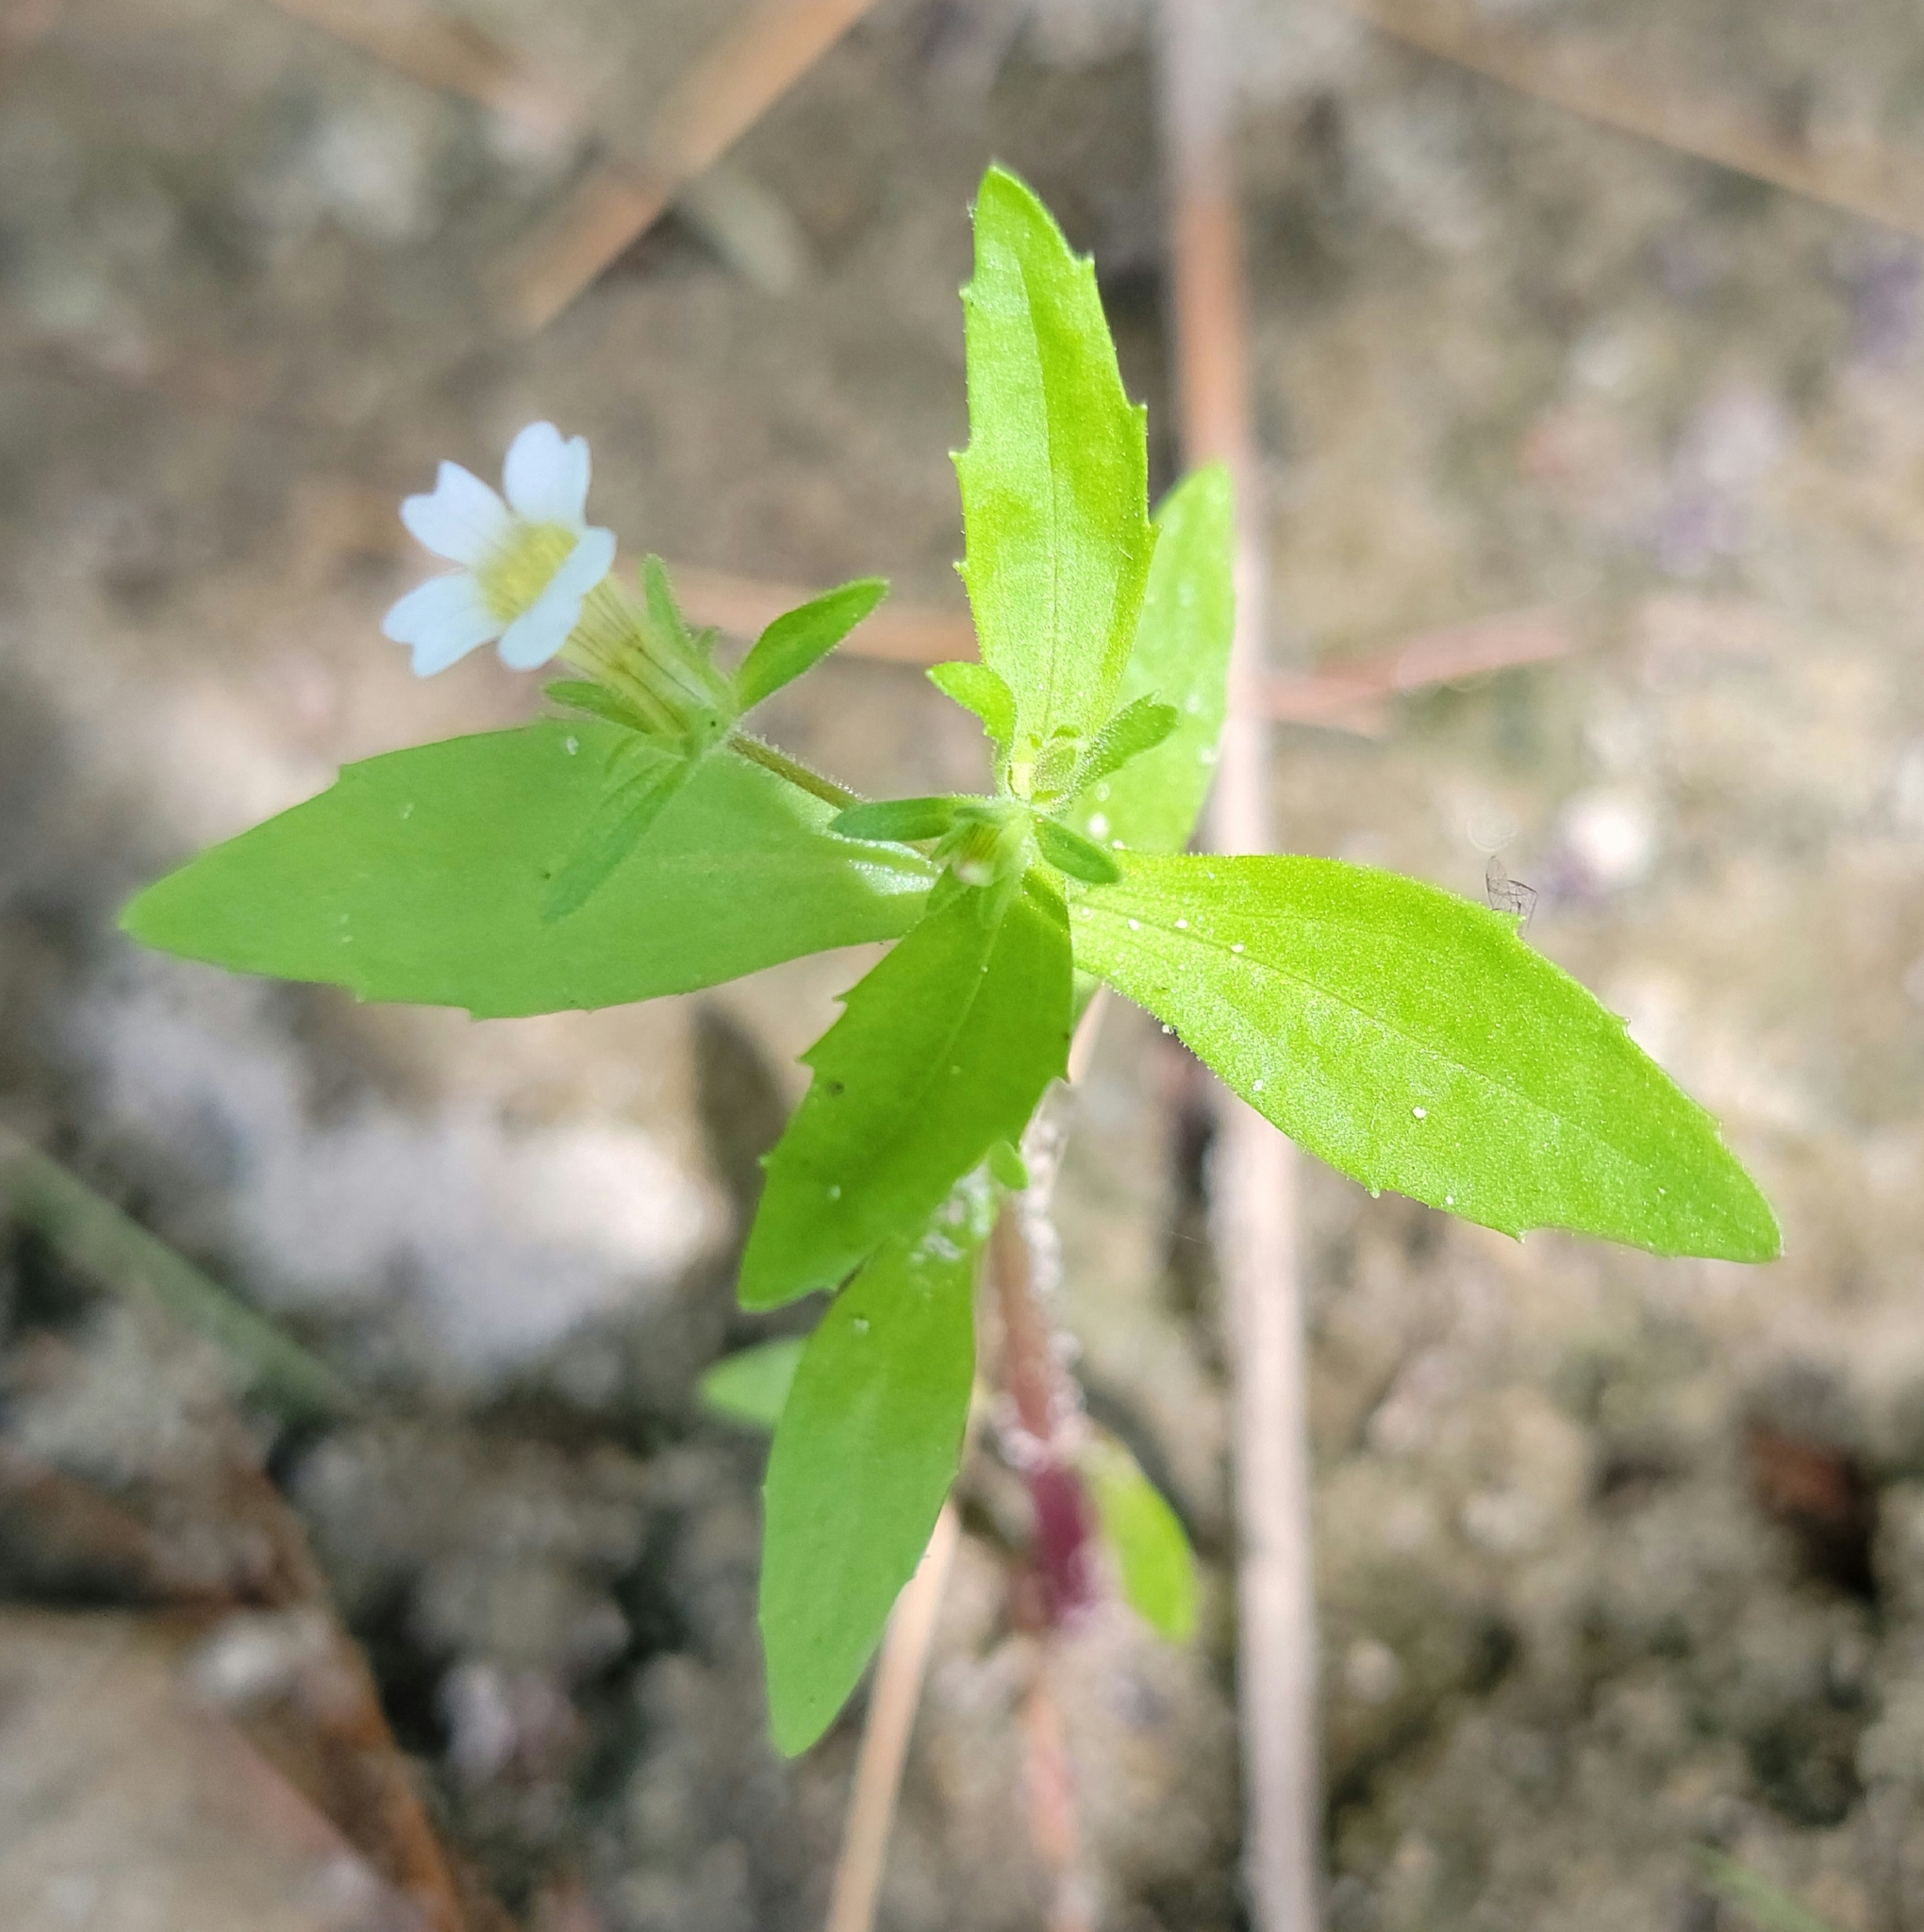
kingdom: Plantae
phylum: Tracheophyta
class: Magnoliopsida
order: Lamiales
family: Plantaginaceae
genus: Gratiola
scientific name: Gratiola neglecta
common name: American hedge-hyssop
